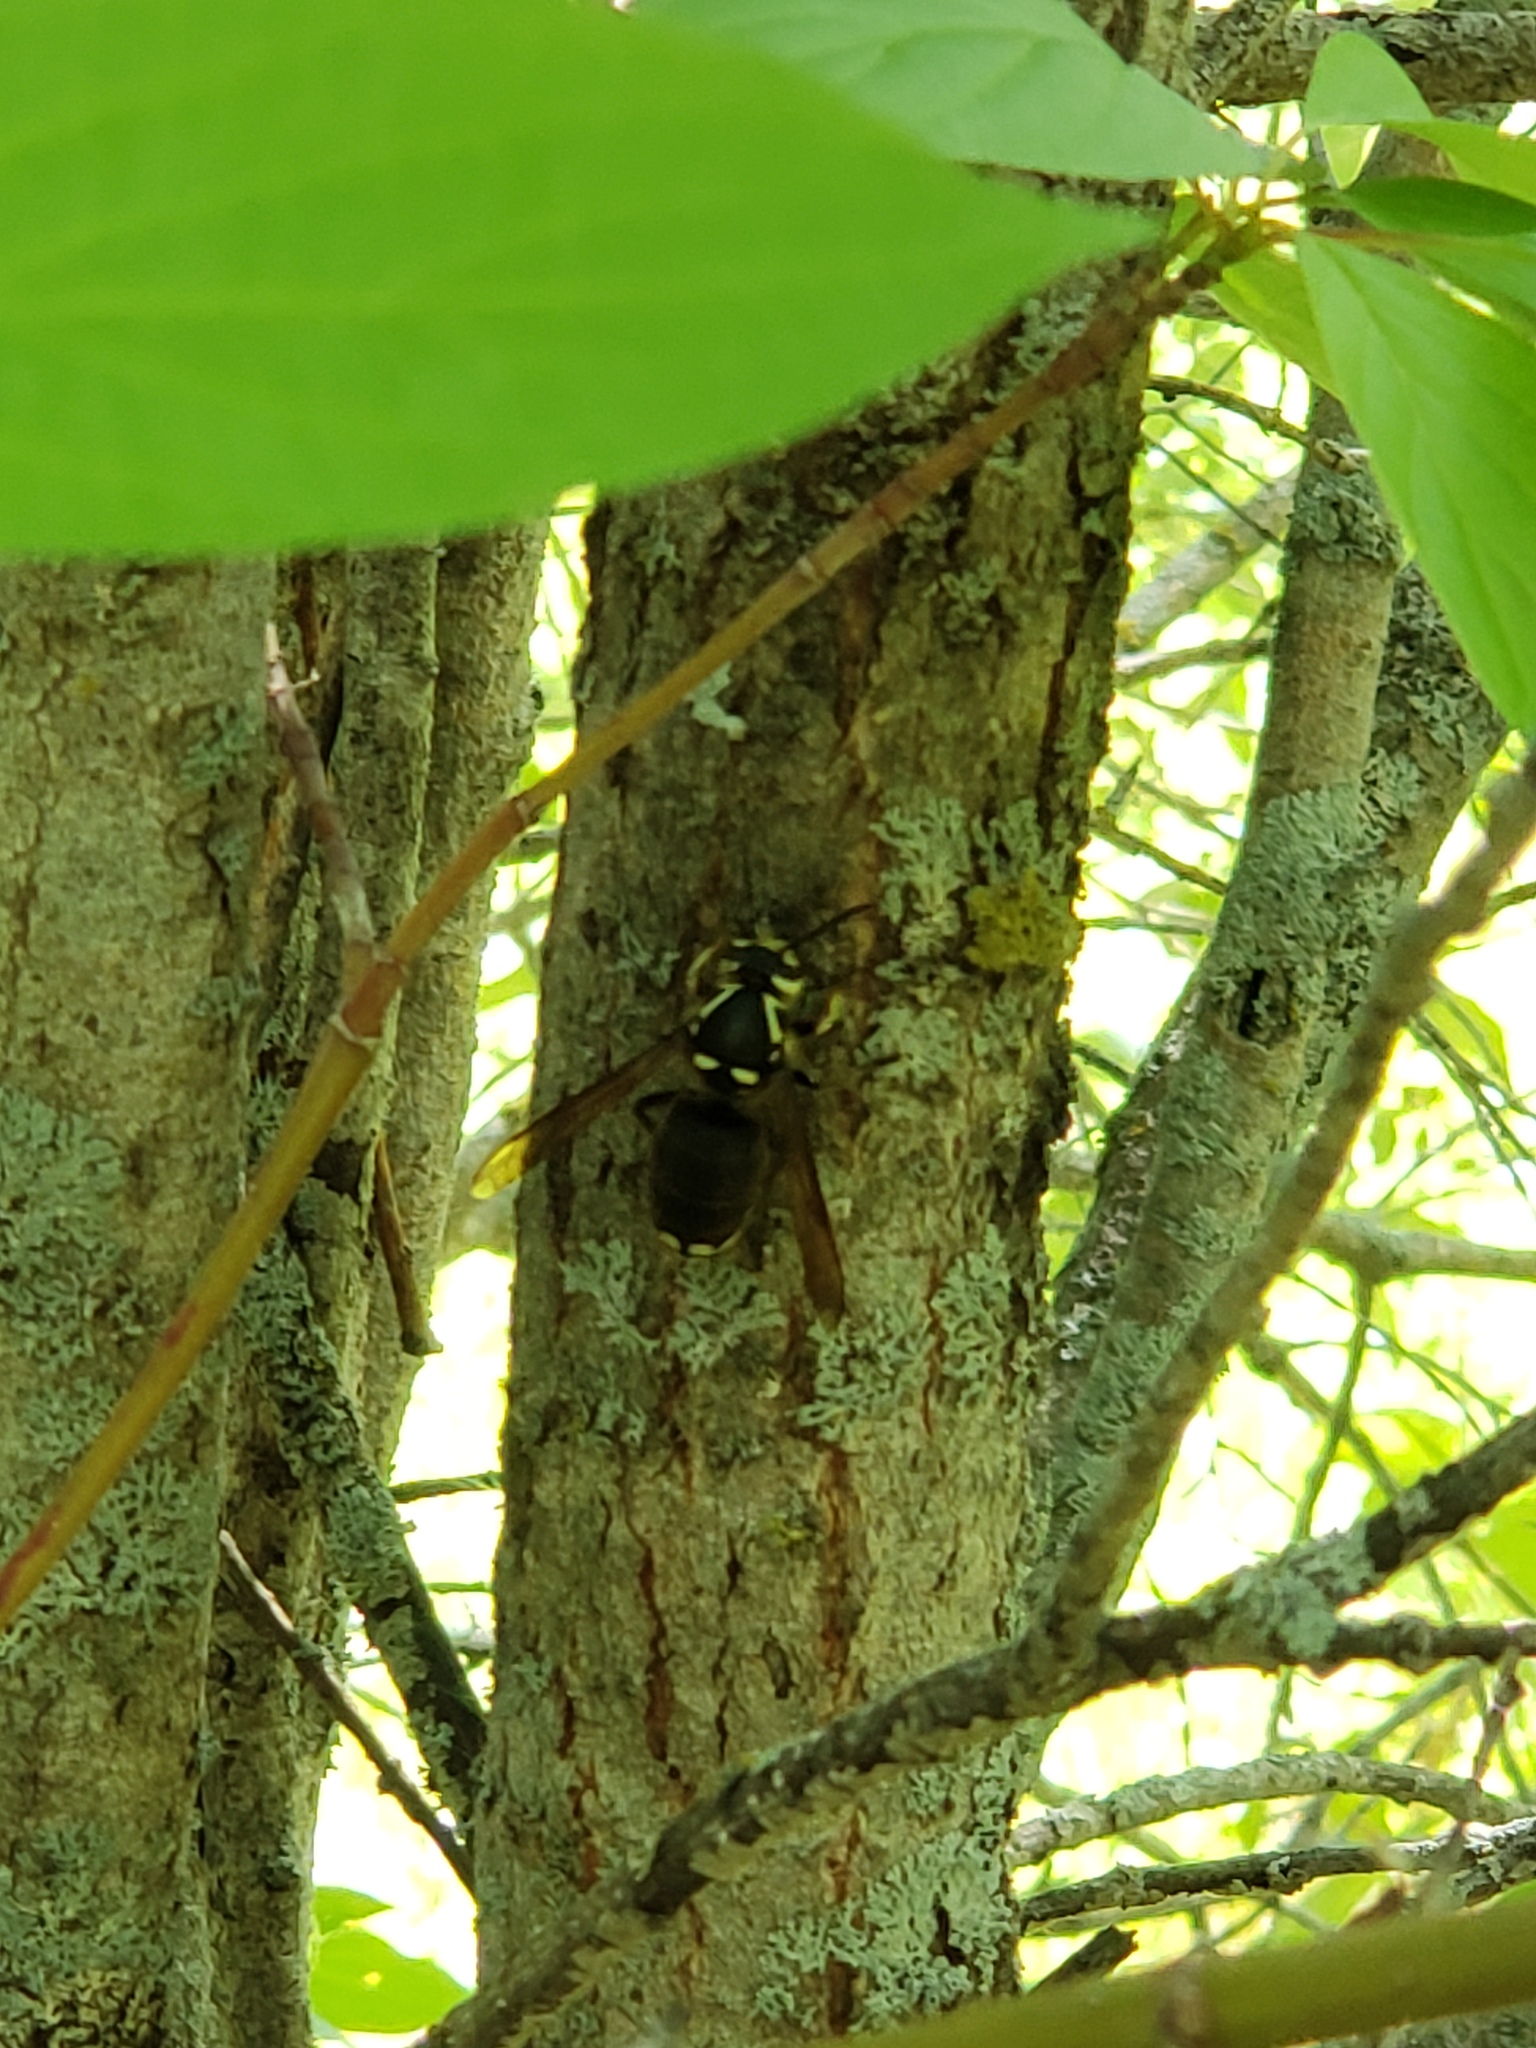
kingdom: Animalia
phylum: Arthropoda
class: Insecta
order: Hymenoptera
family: Vespidae
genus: Dolichovespula
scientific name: Dolichovespula maculata
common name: Bald-faced hornet
